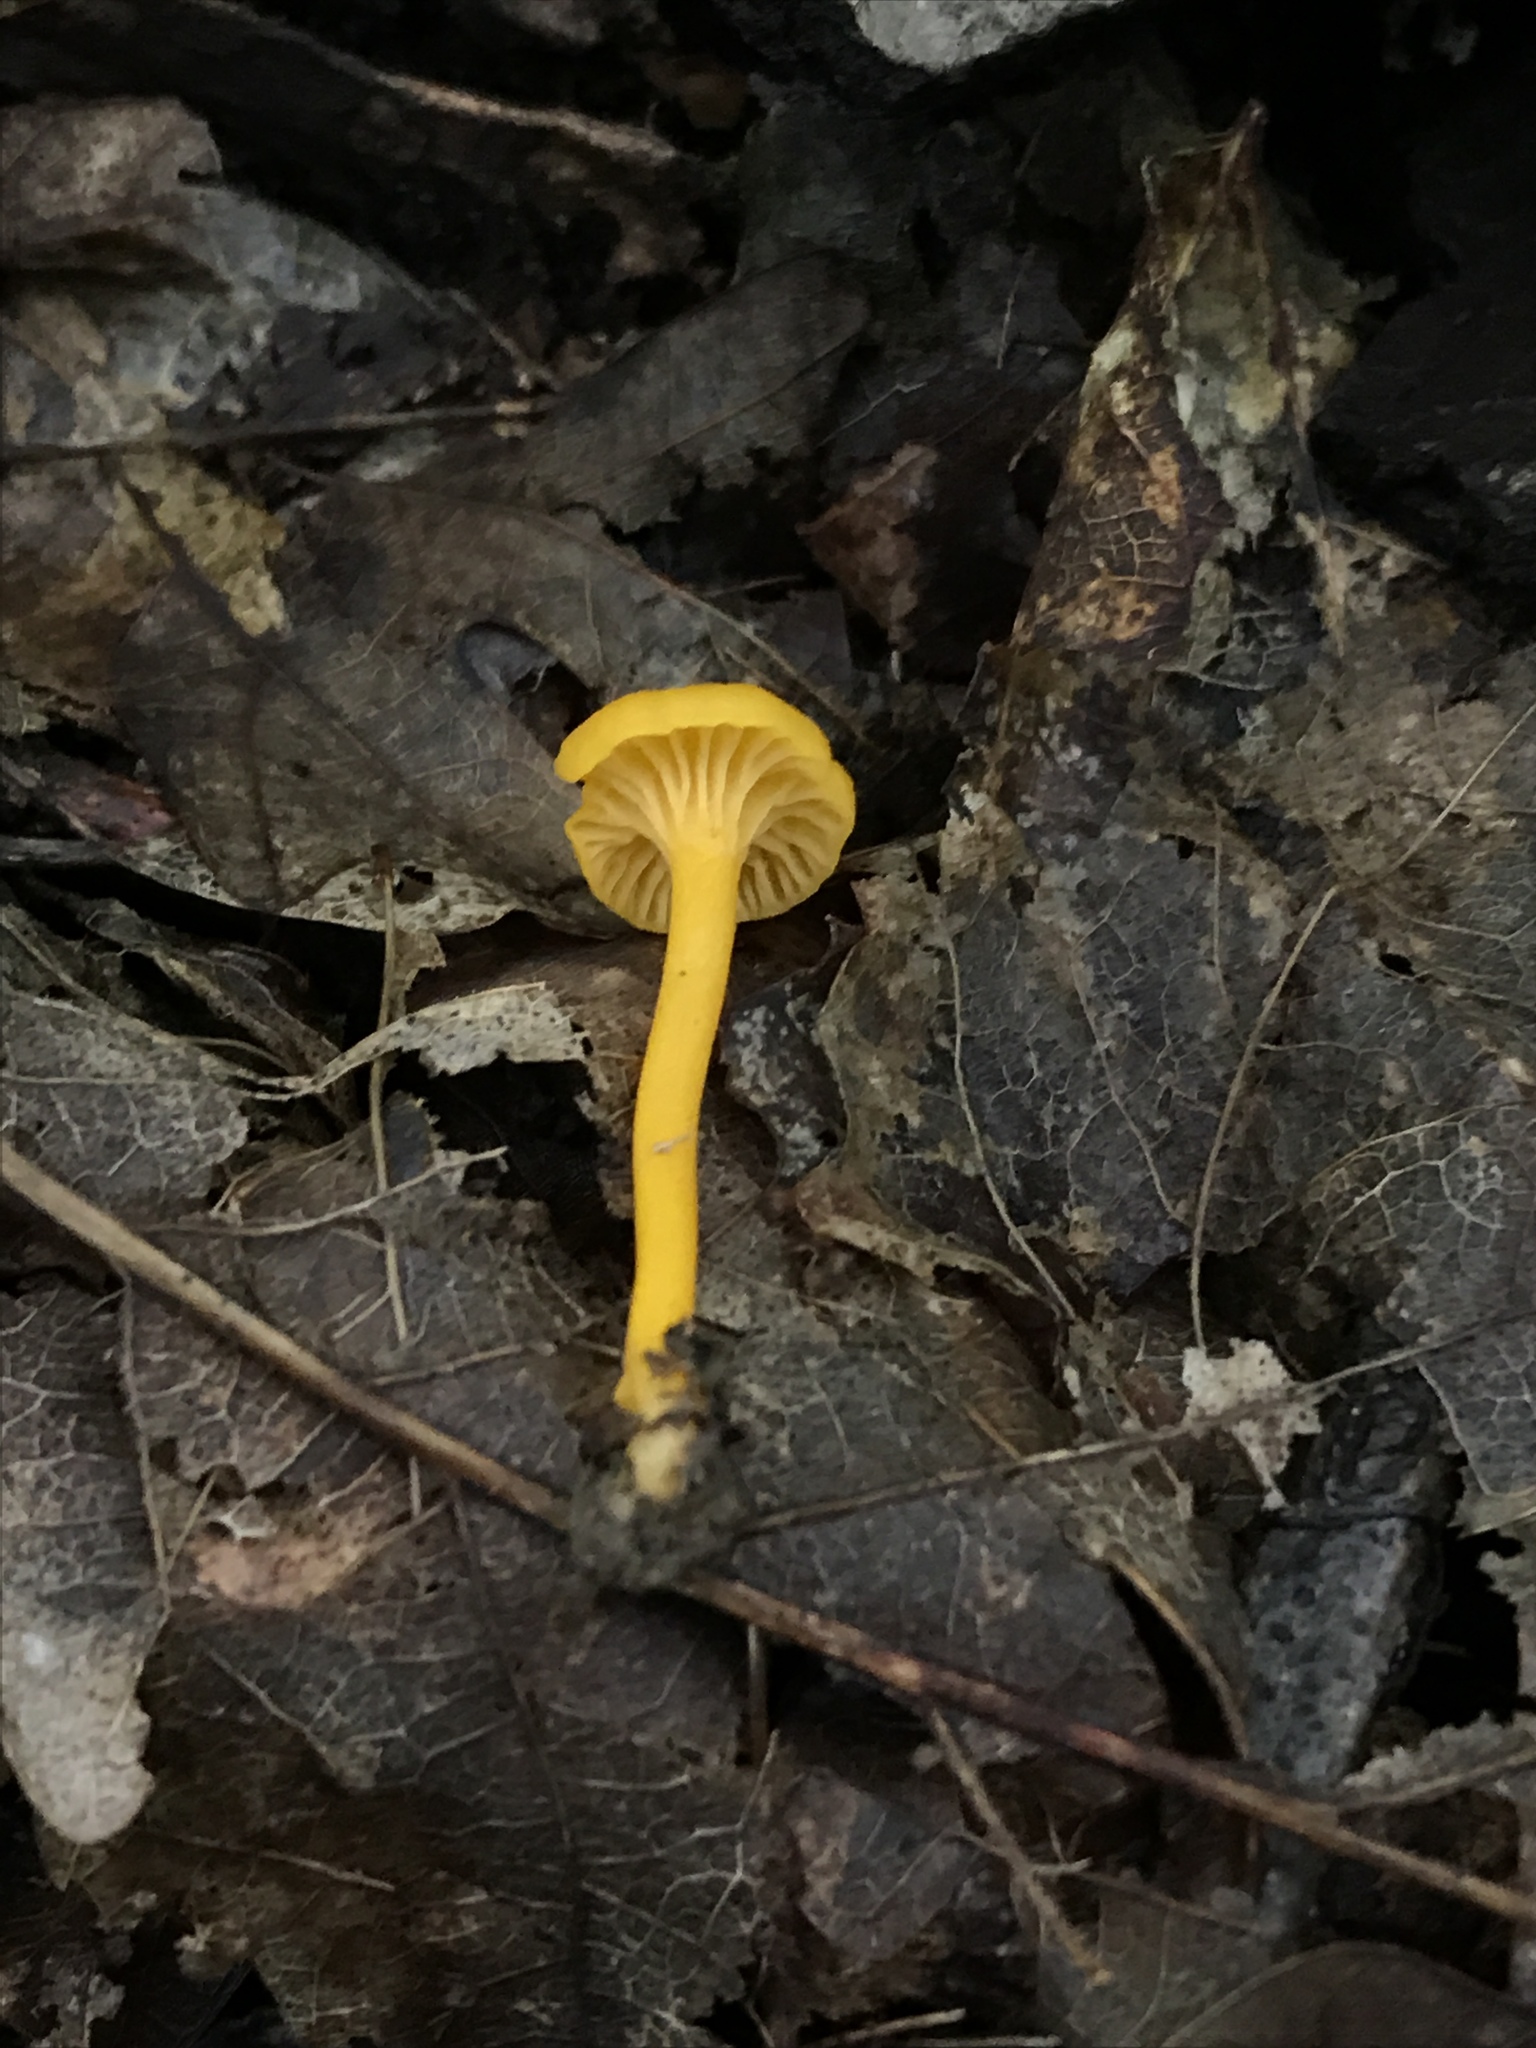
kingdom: Fungi
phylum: Basidiomycota
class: Agaricomycetes
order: Cantharellales
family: Hydnaceae
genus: Cantharellus
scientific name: Cantharellus minor
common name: Small chanterelle
